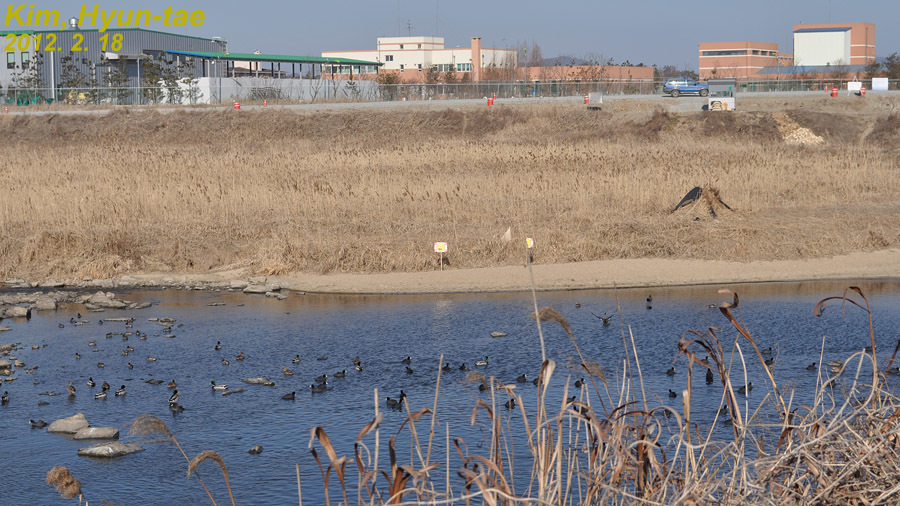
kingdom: Animalia
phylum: Chordata
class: Aves
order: Gruiformes
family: Rallidae
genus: Fulica
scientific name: Fulica atra
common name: Eurasian coot
